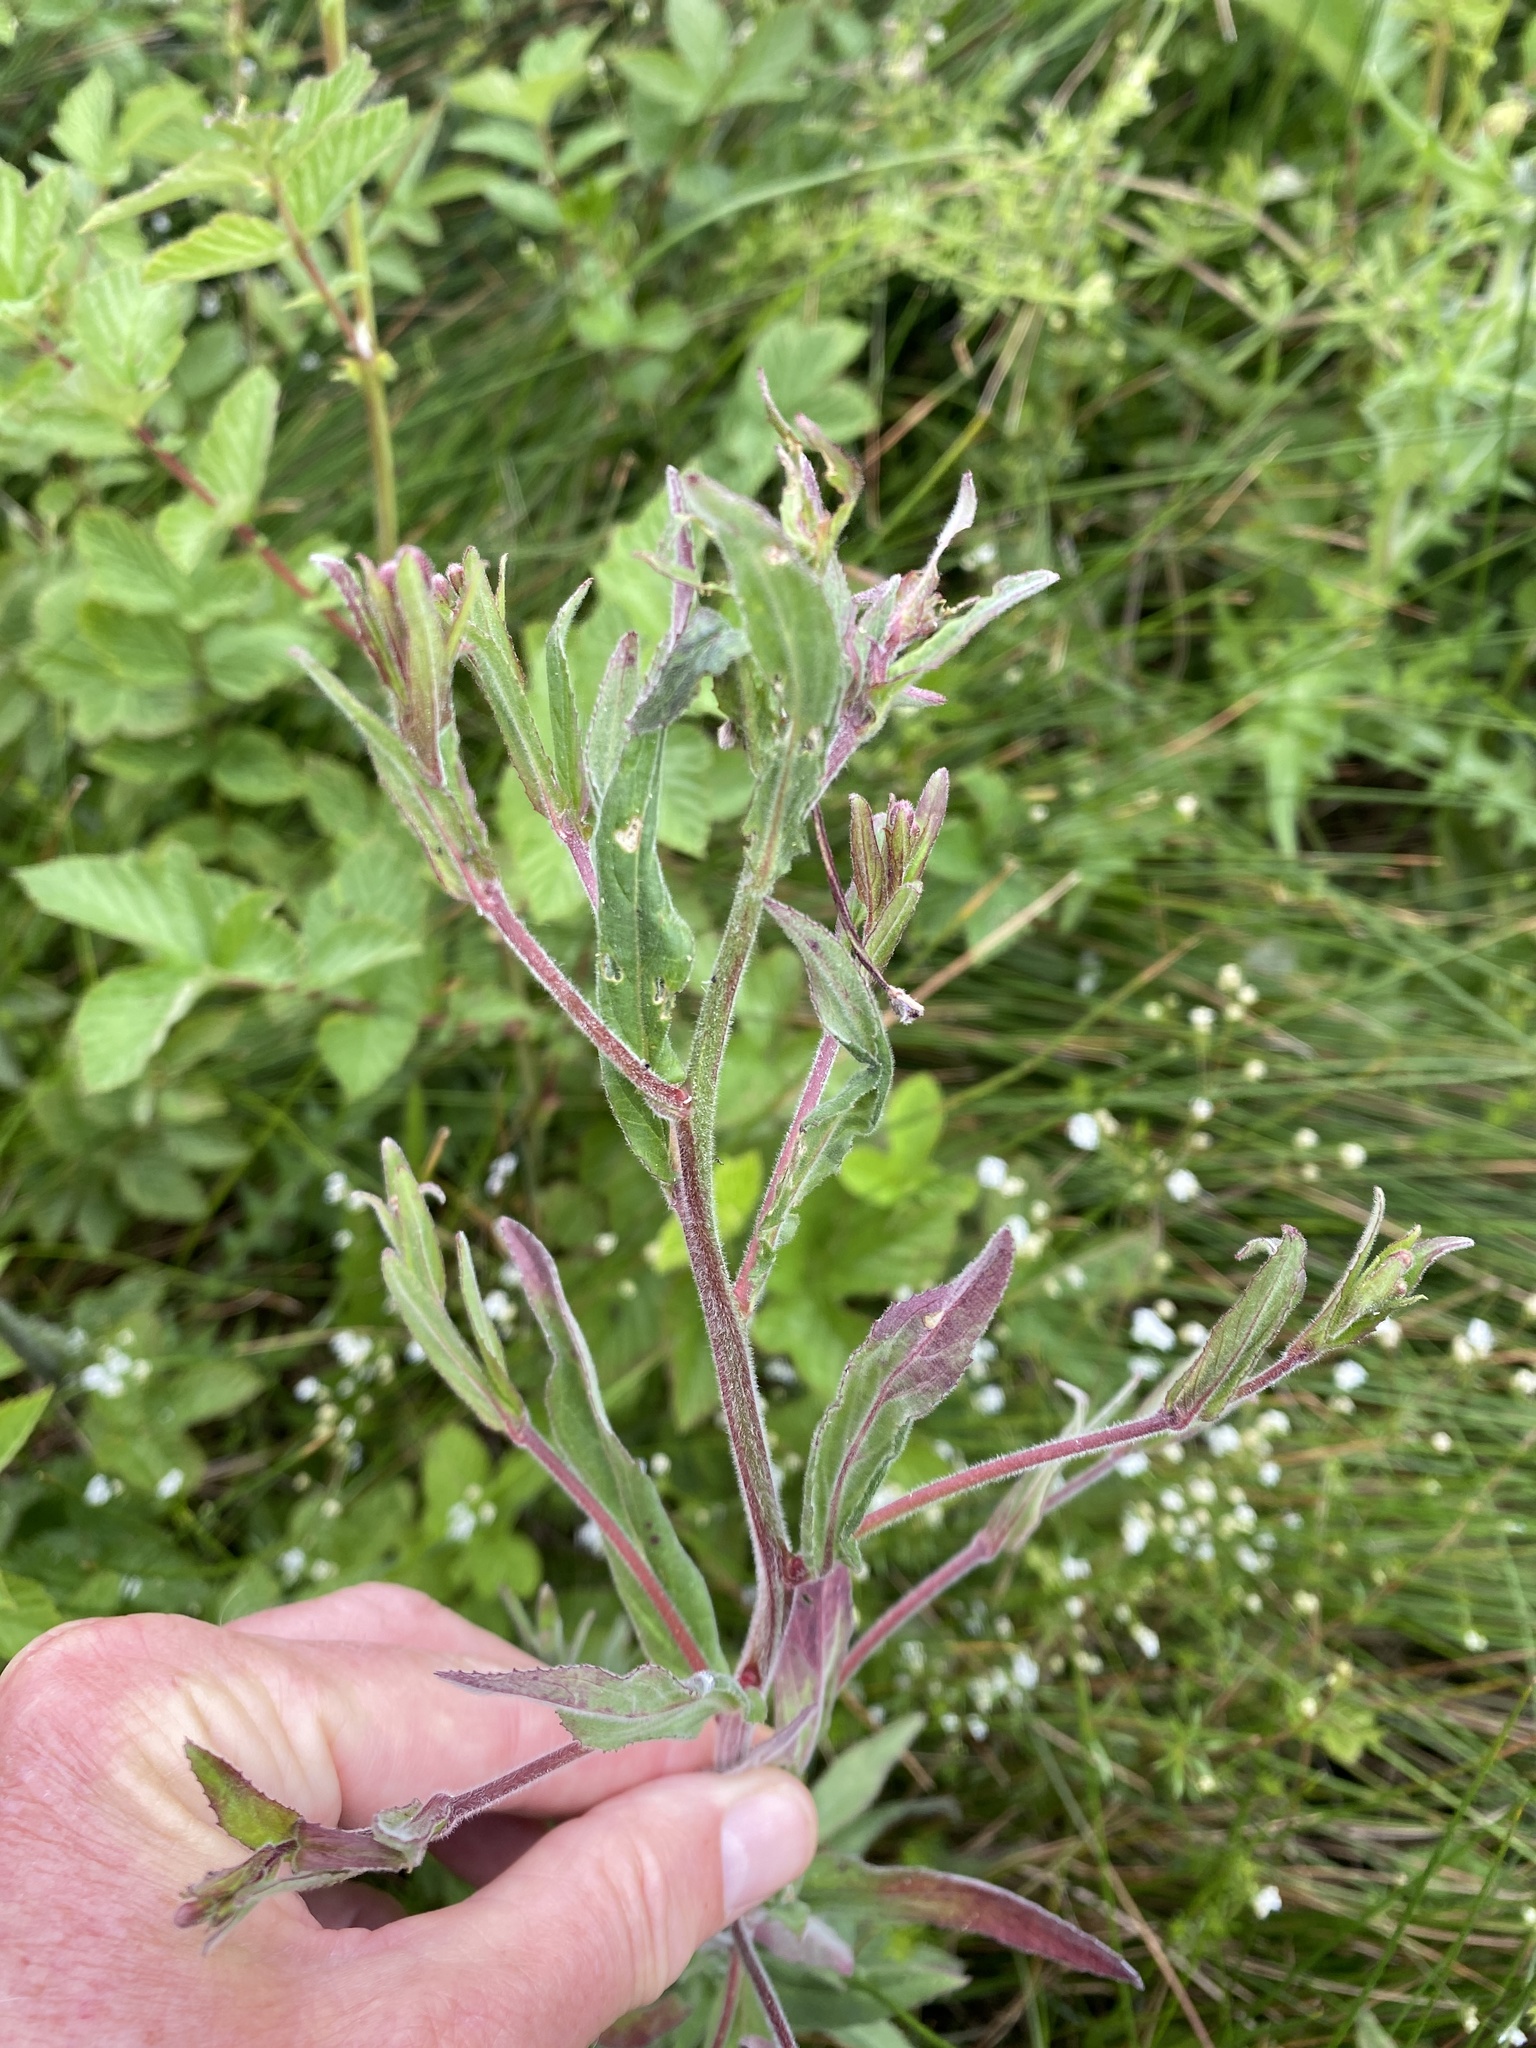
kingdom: Plantae
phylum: Tracheophyta
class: Magnoliopsida
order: Myrtales
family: Onagraceae
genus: Epilobium
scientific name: Epilobium parviflorum
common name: Hoary willowherb
